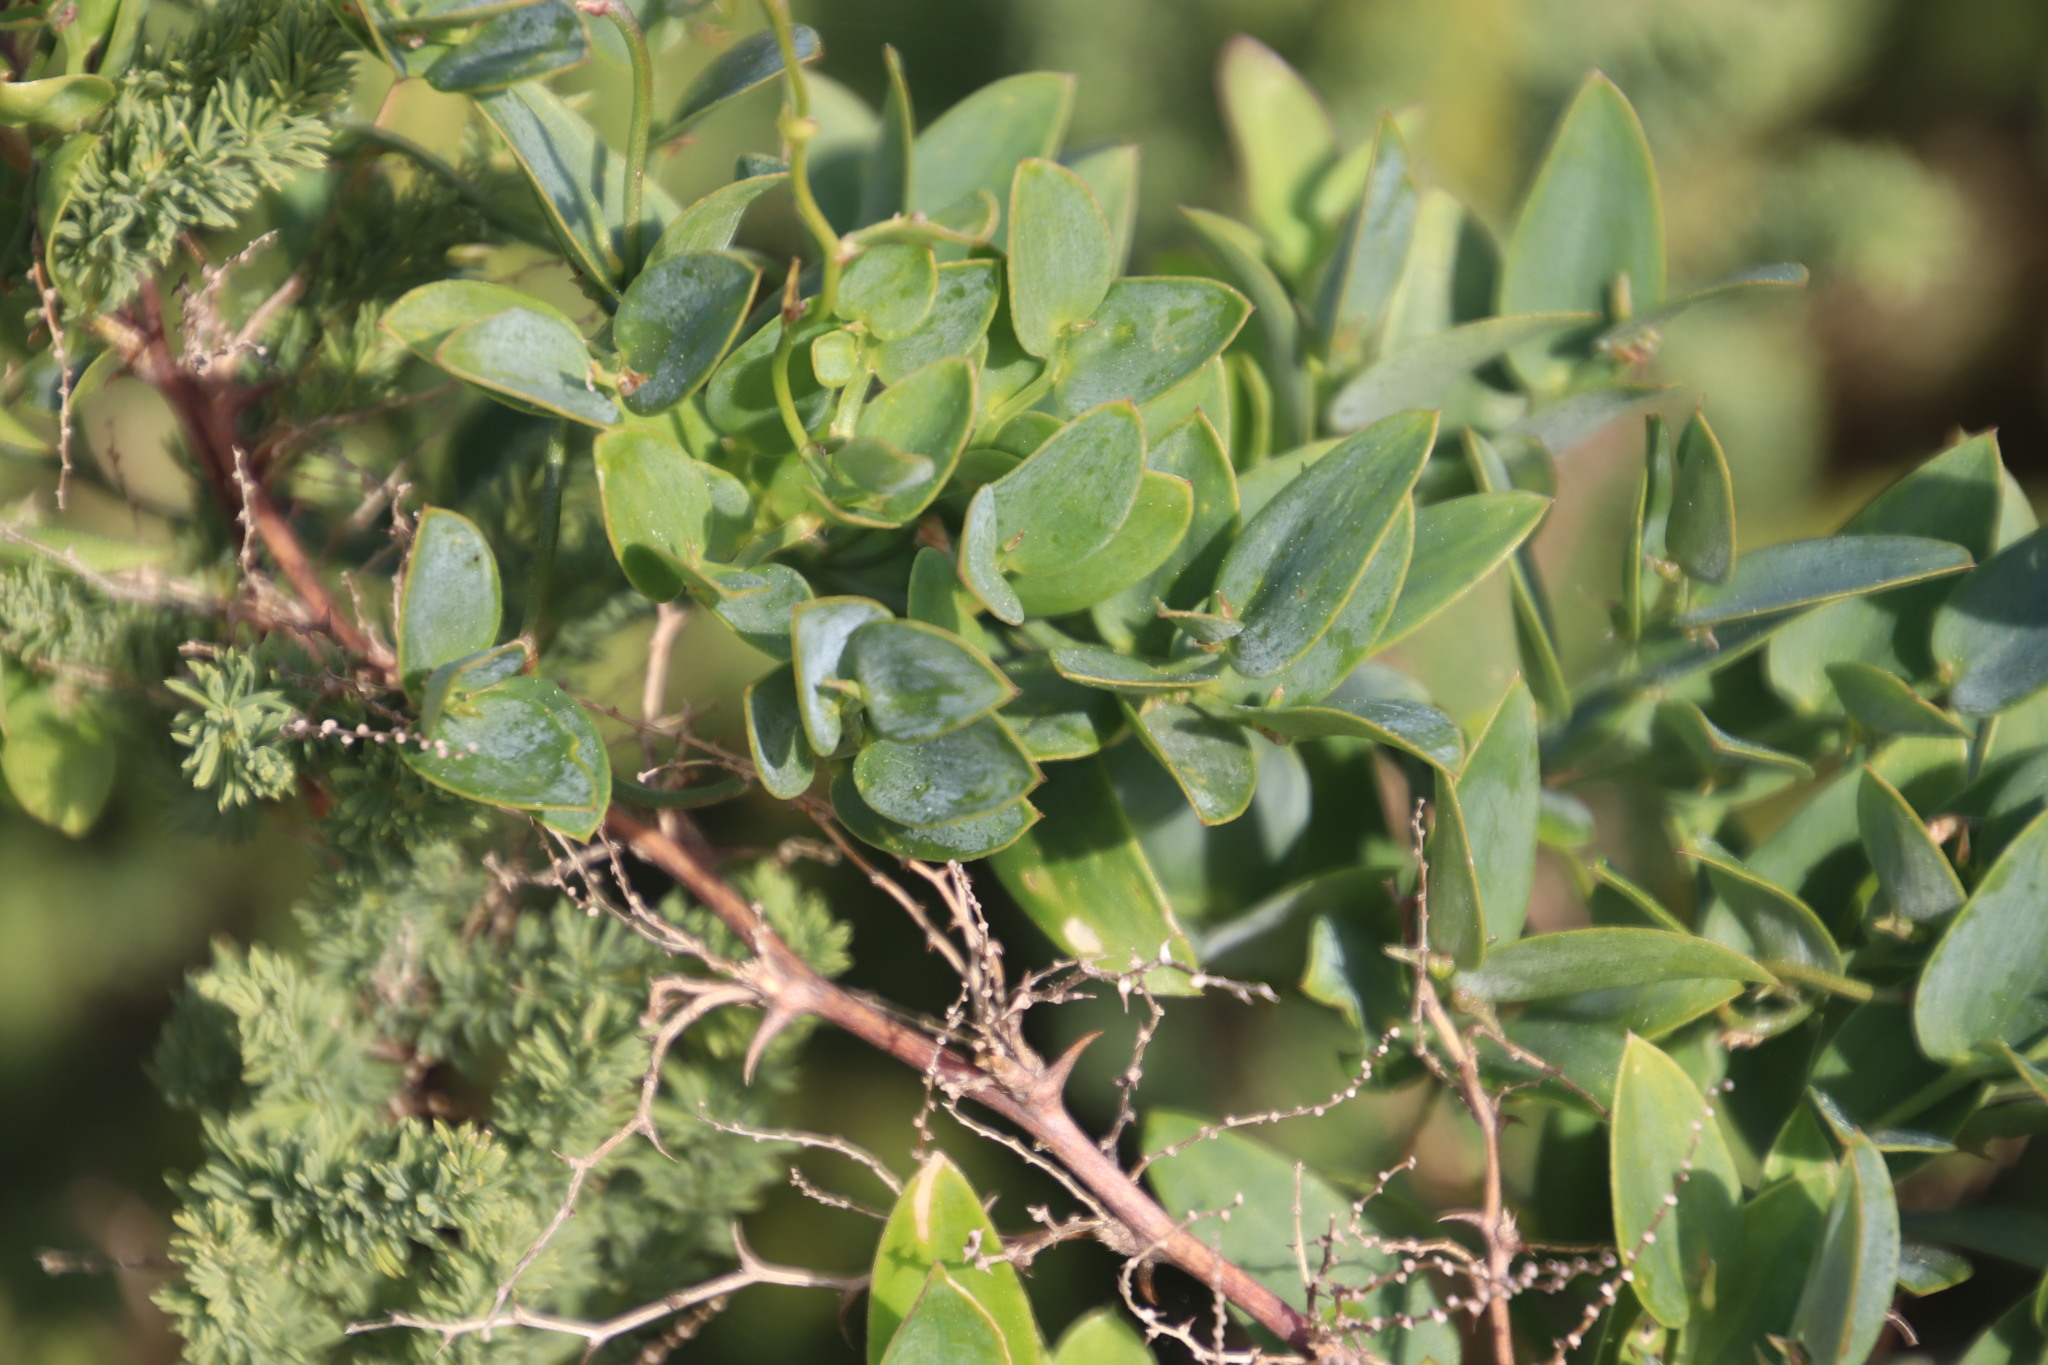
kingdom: Plantae
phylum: Tracheophyta
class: Liliopsida
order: Asparagales
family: Asparagaceae
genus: Asparagus
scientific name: Asparagus ovatus
